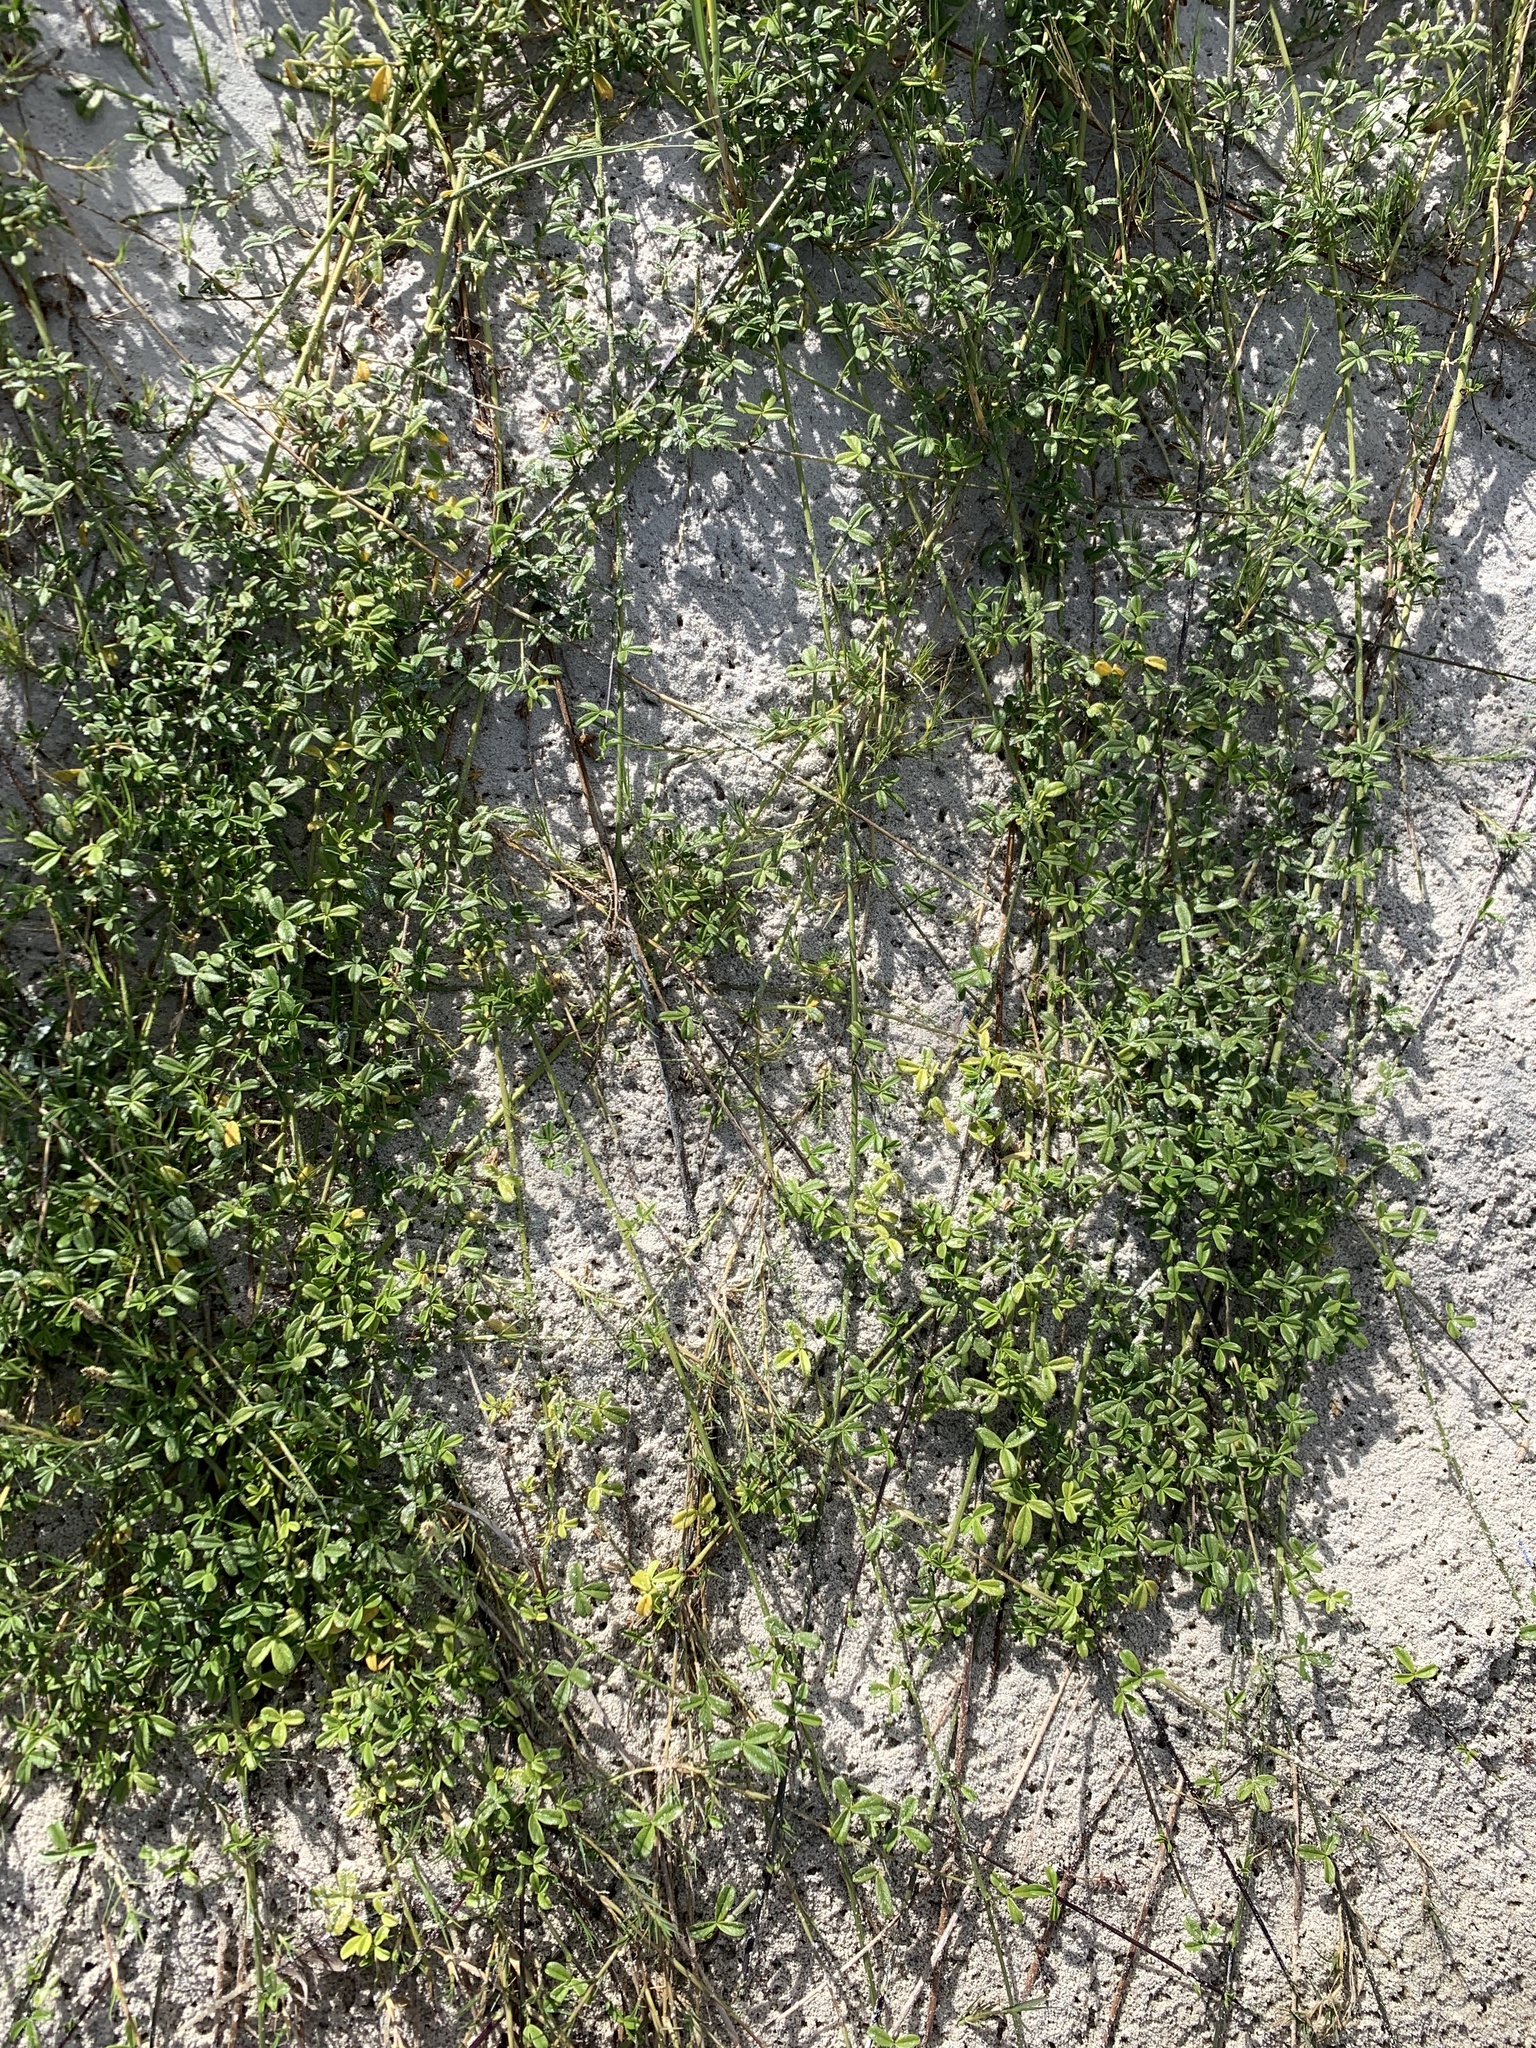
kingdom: Plantae
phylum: Tracheophyta
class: Magnoliopsida
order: Fabales
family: Fabaceae
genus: Psoralea
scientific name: Psoralea repens
